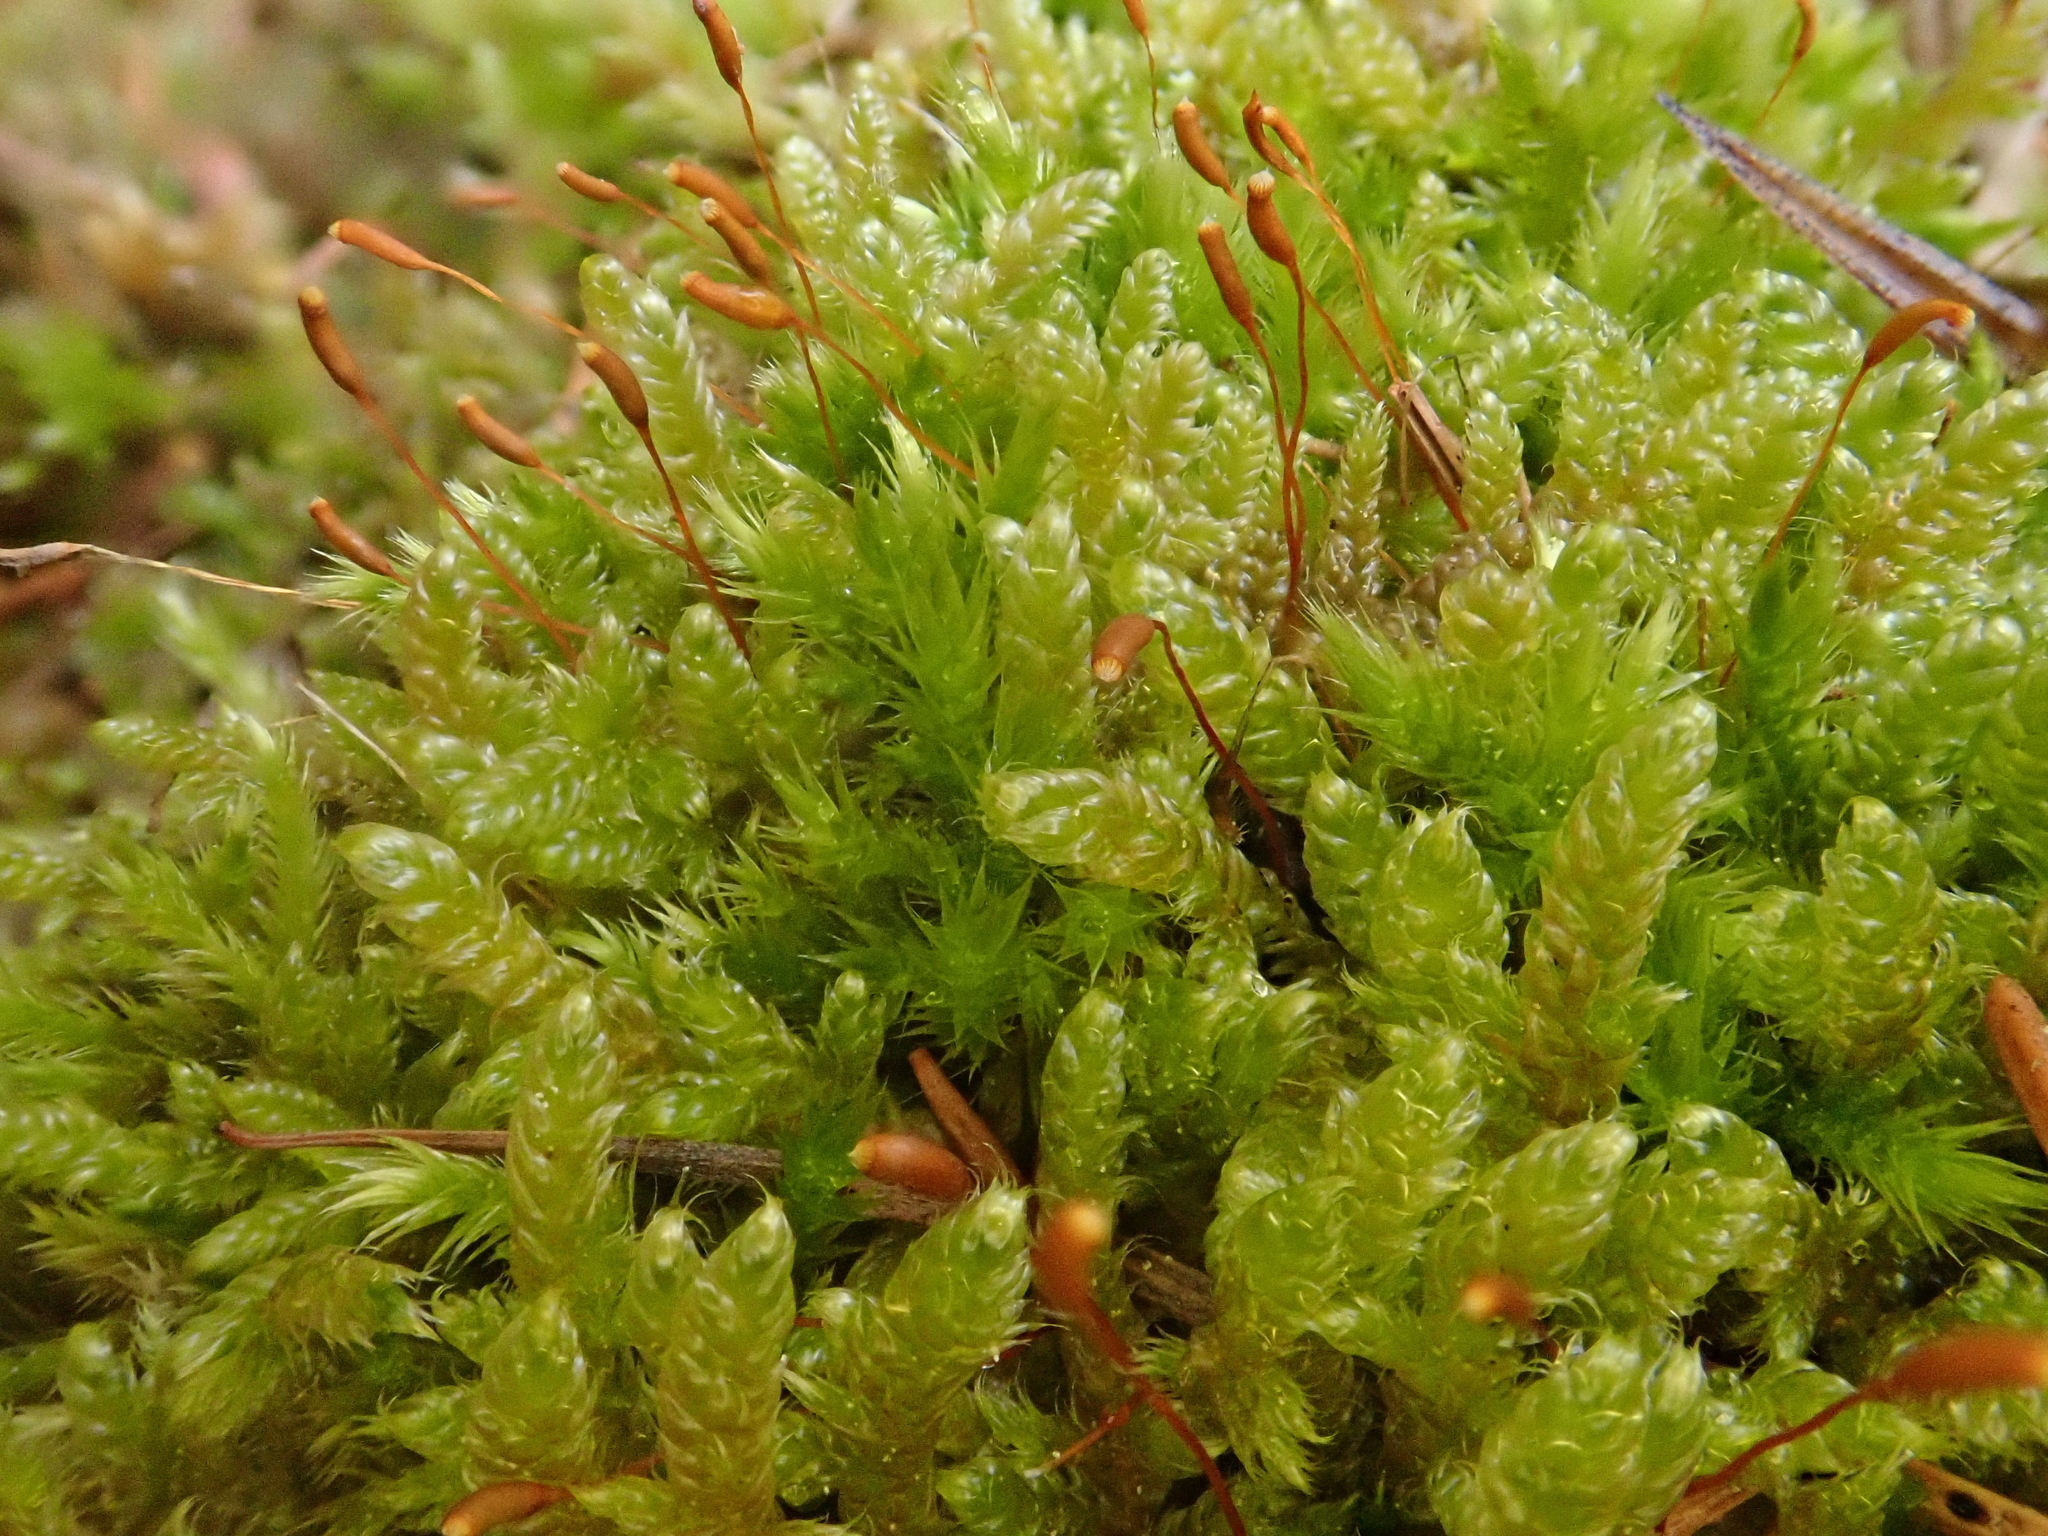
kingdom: Plantae
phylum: Bryophyta
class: Bryopsida
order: Hypnales
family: Hypnaceae
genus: Hypnum
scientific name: Hypnum cupressiforme
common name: Cypress-leaved plait-moss
